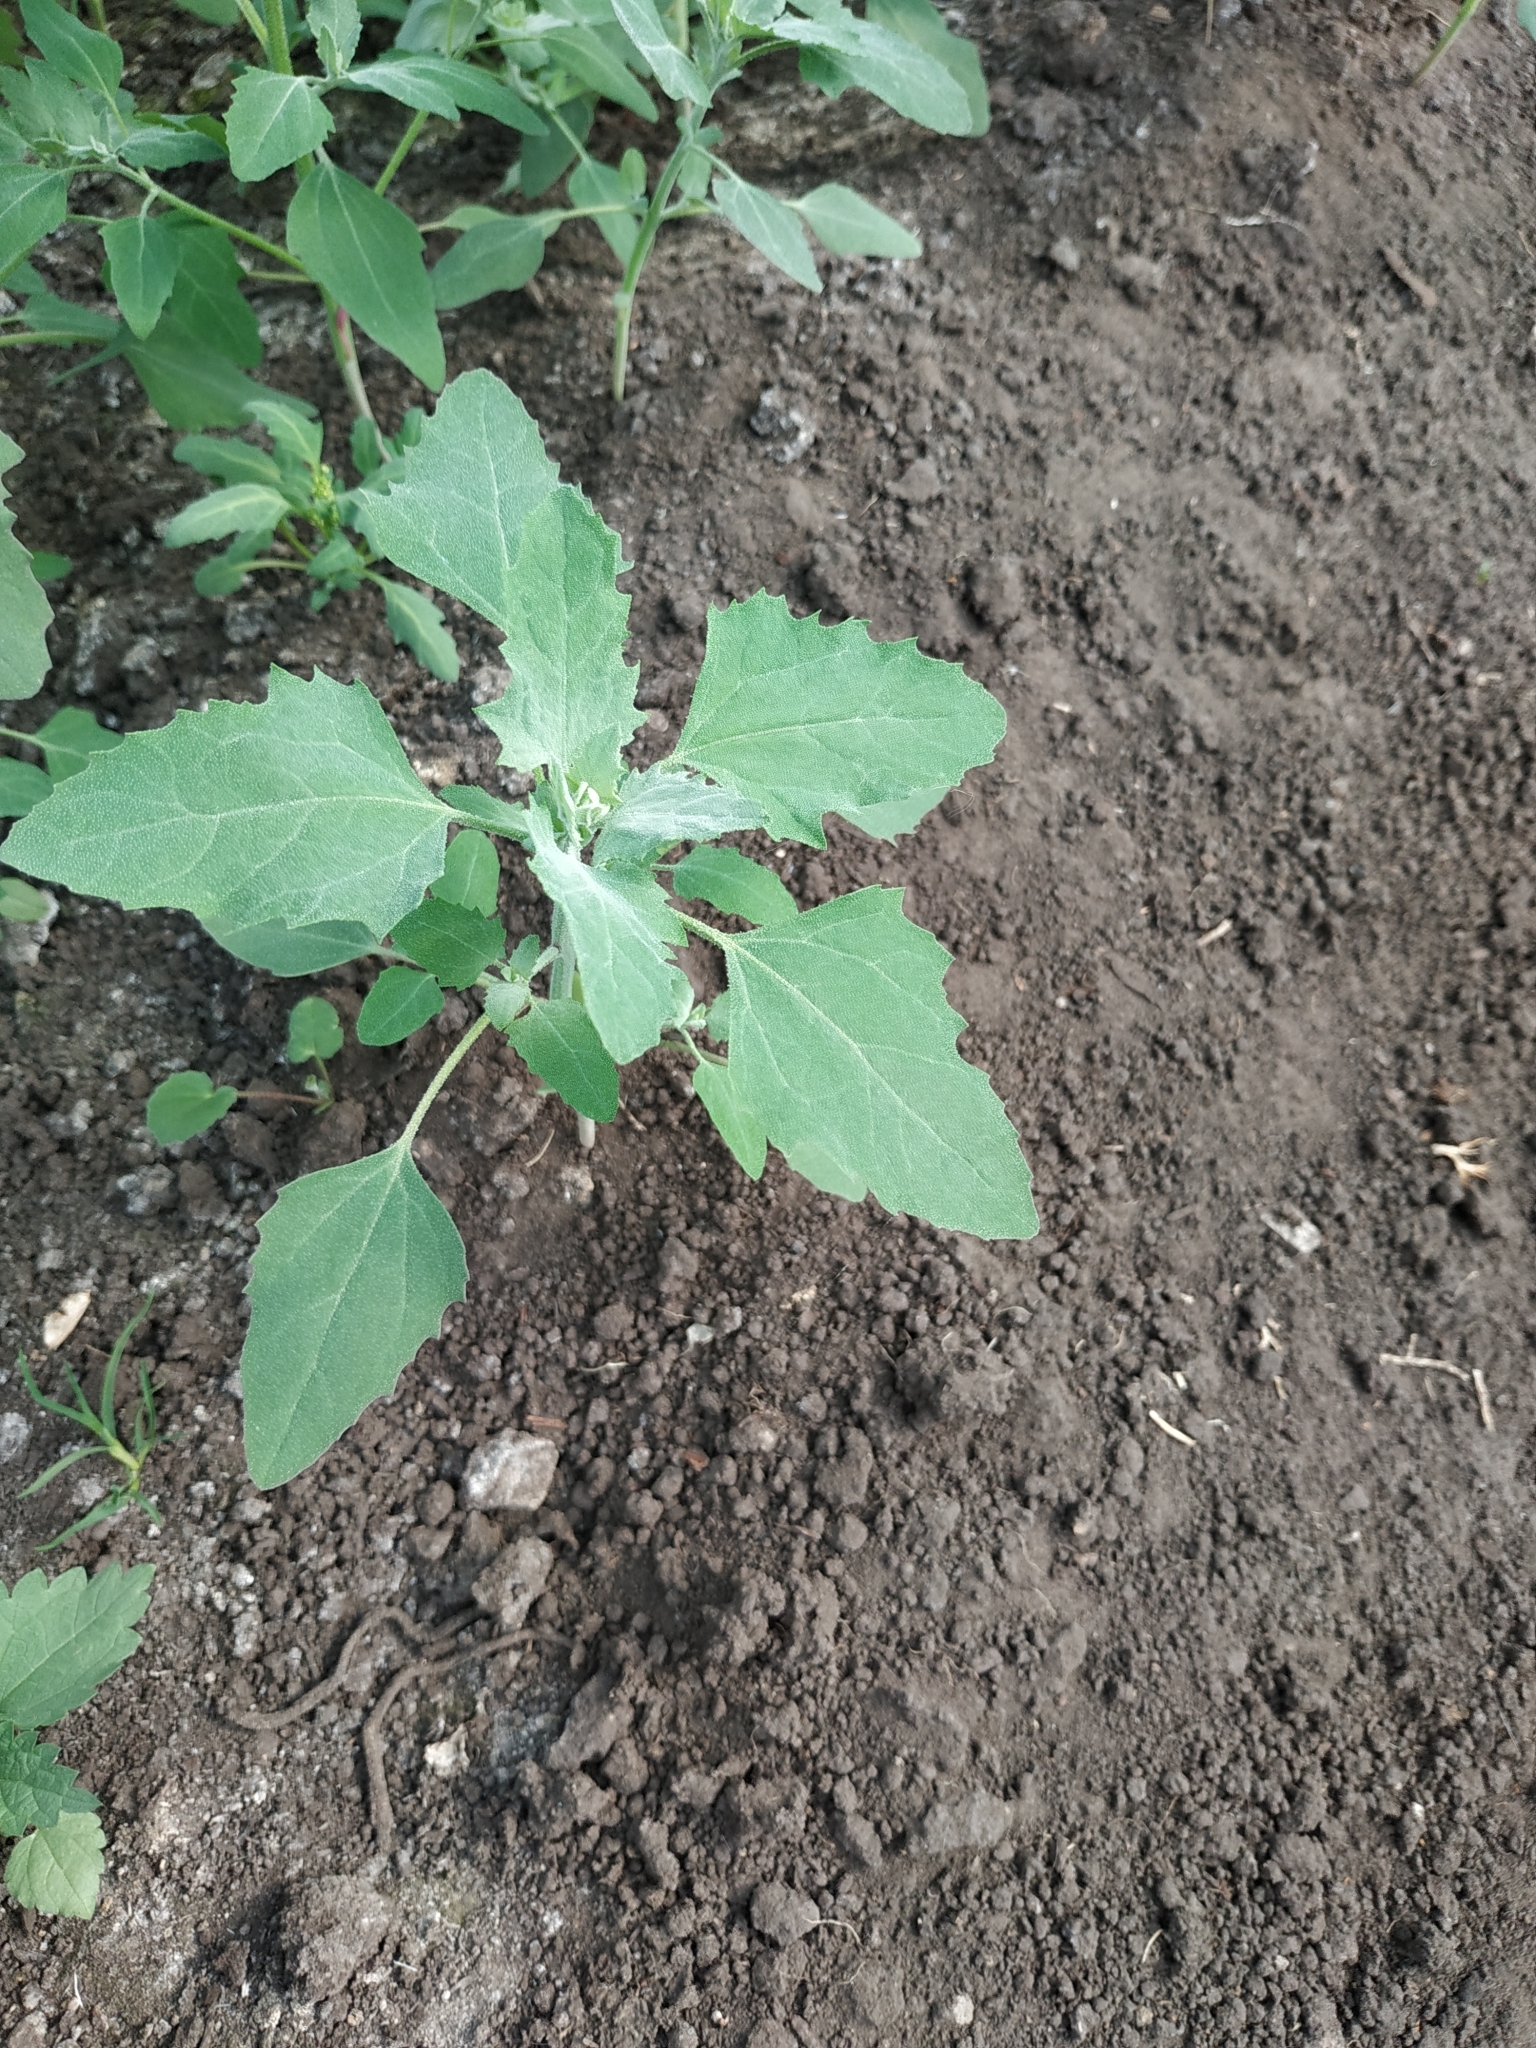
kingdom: Plantae
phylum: Tracheophyta
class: Magnoliopsida
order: Caryophyllales
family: Amaranthaceae
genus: Chenopodium
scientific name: Chenopodium album
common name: Fat-hen
